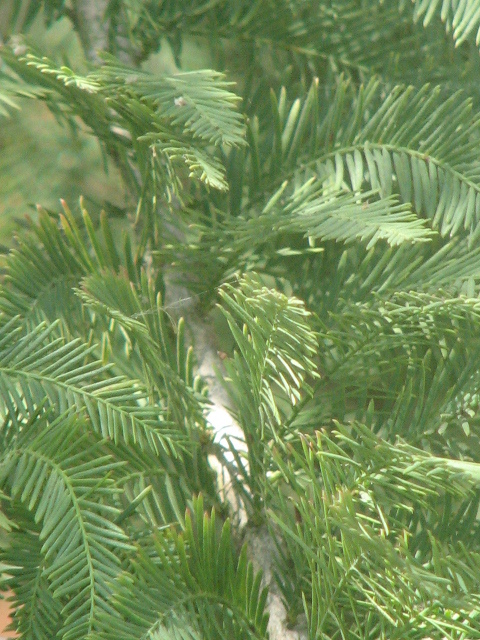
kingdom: Plantae
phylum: Tracheophyta
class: Pinopsida
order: Pinales
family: Cupressaceae
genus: Taxodium
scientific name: Taxodium mucronatum
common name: Montezume bald cypress
